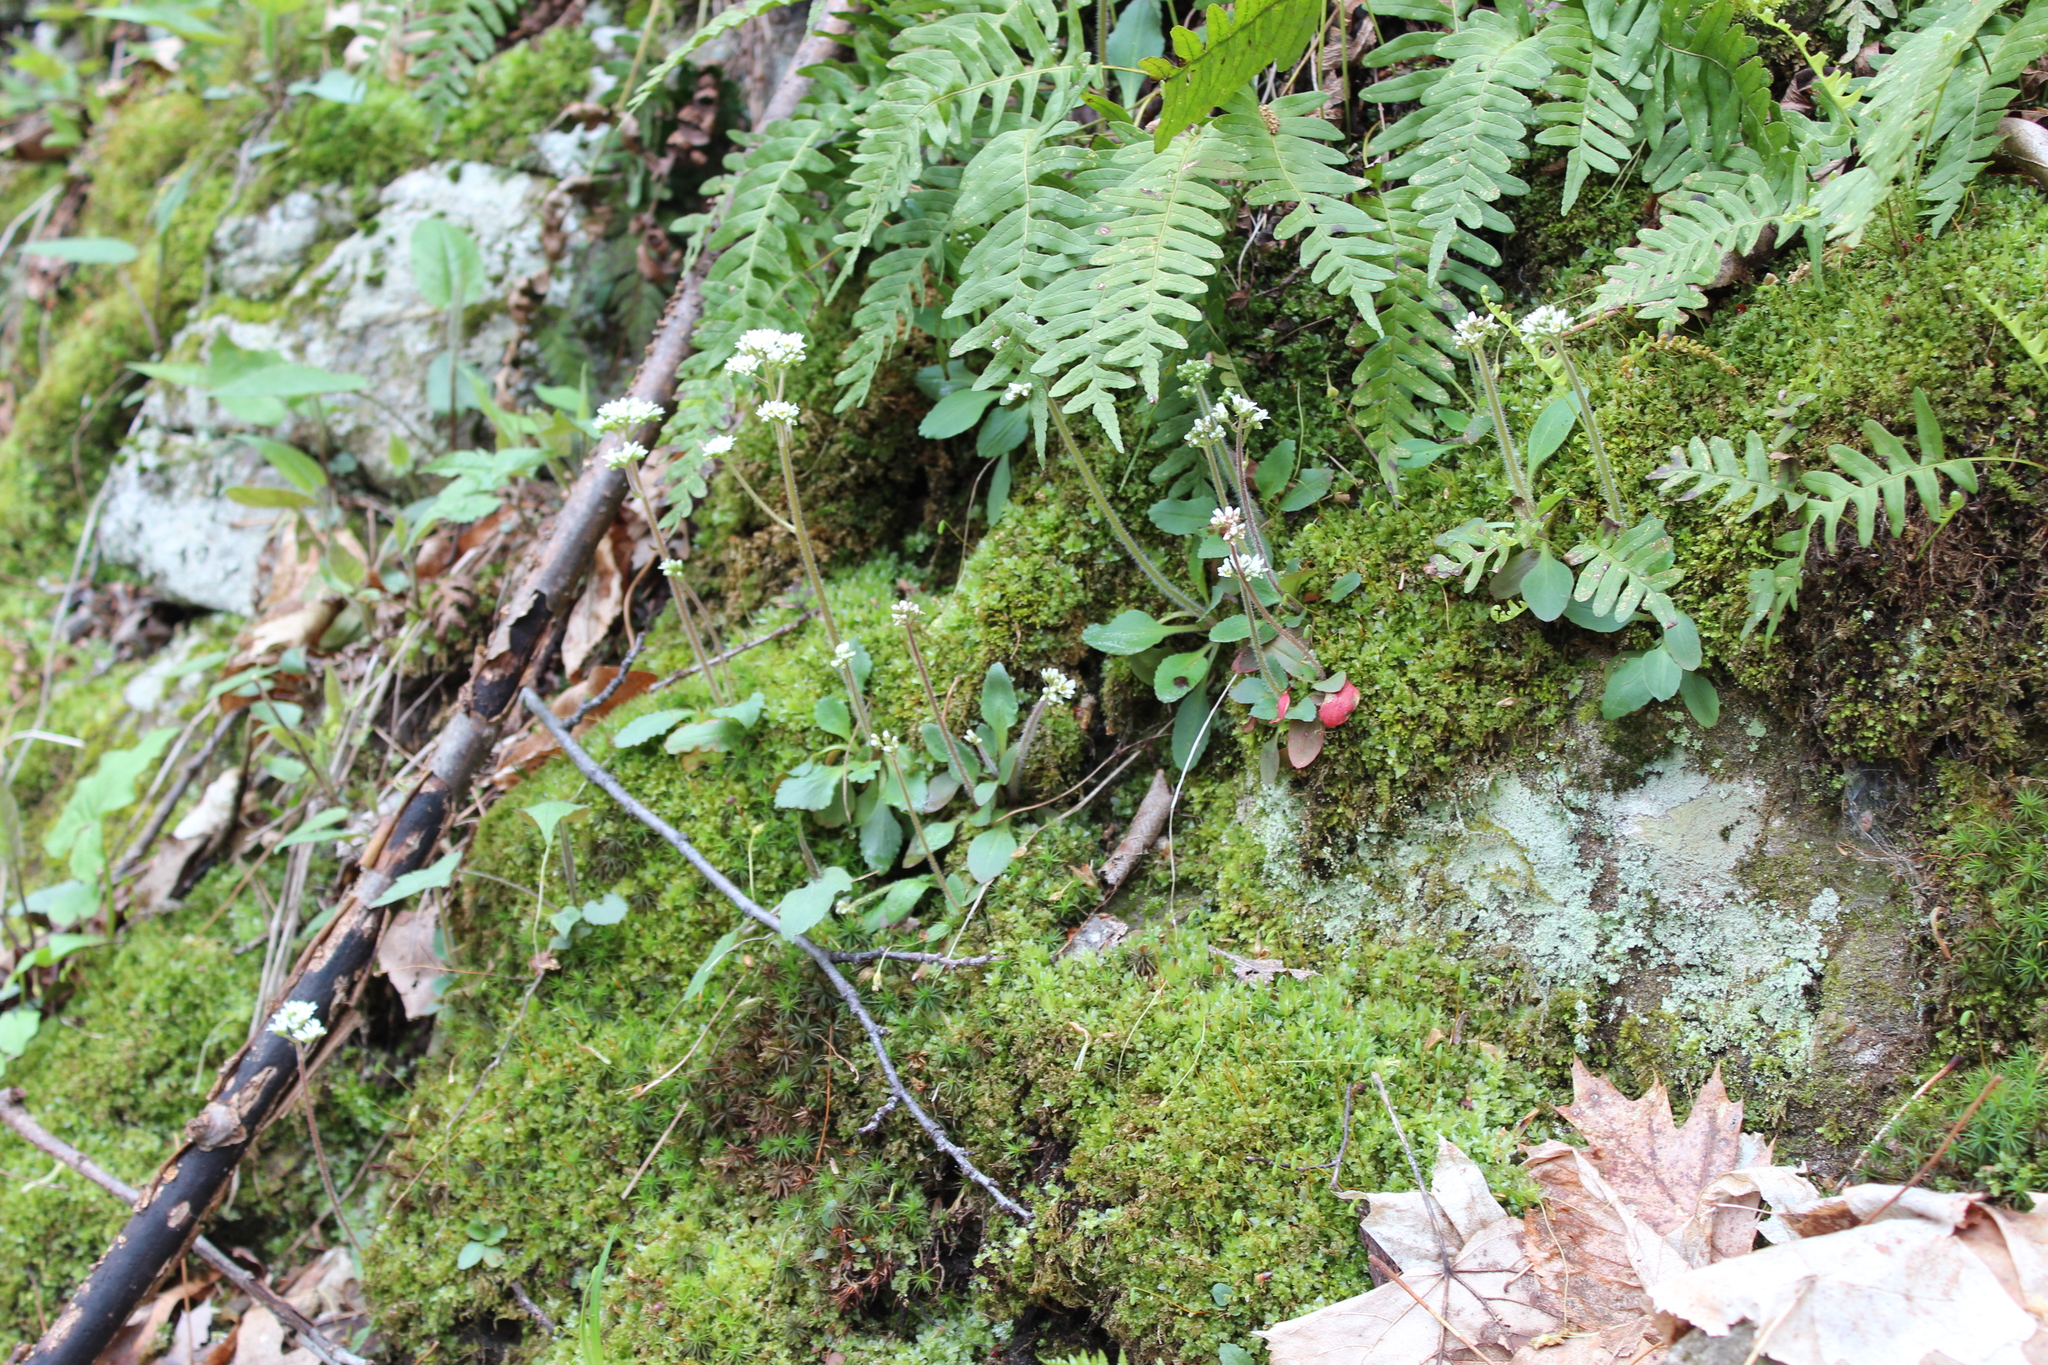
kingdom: Plantae
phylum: Tracheophyta
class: Magnoliopsida
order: Saxifragales
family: Saxifragaceae
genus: Micranthes
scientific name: Micranthes virginiensis
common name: Early saxifrage
